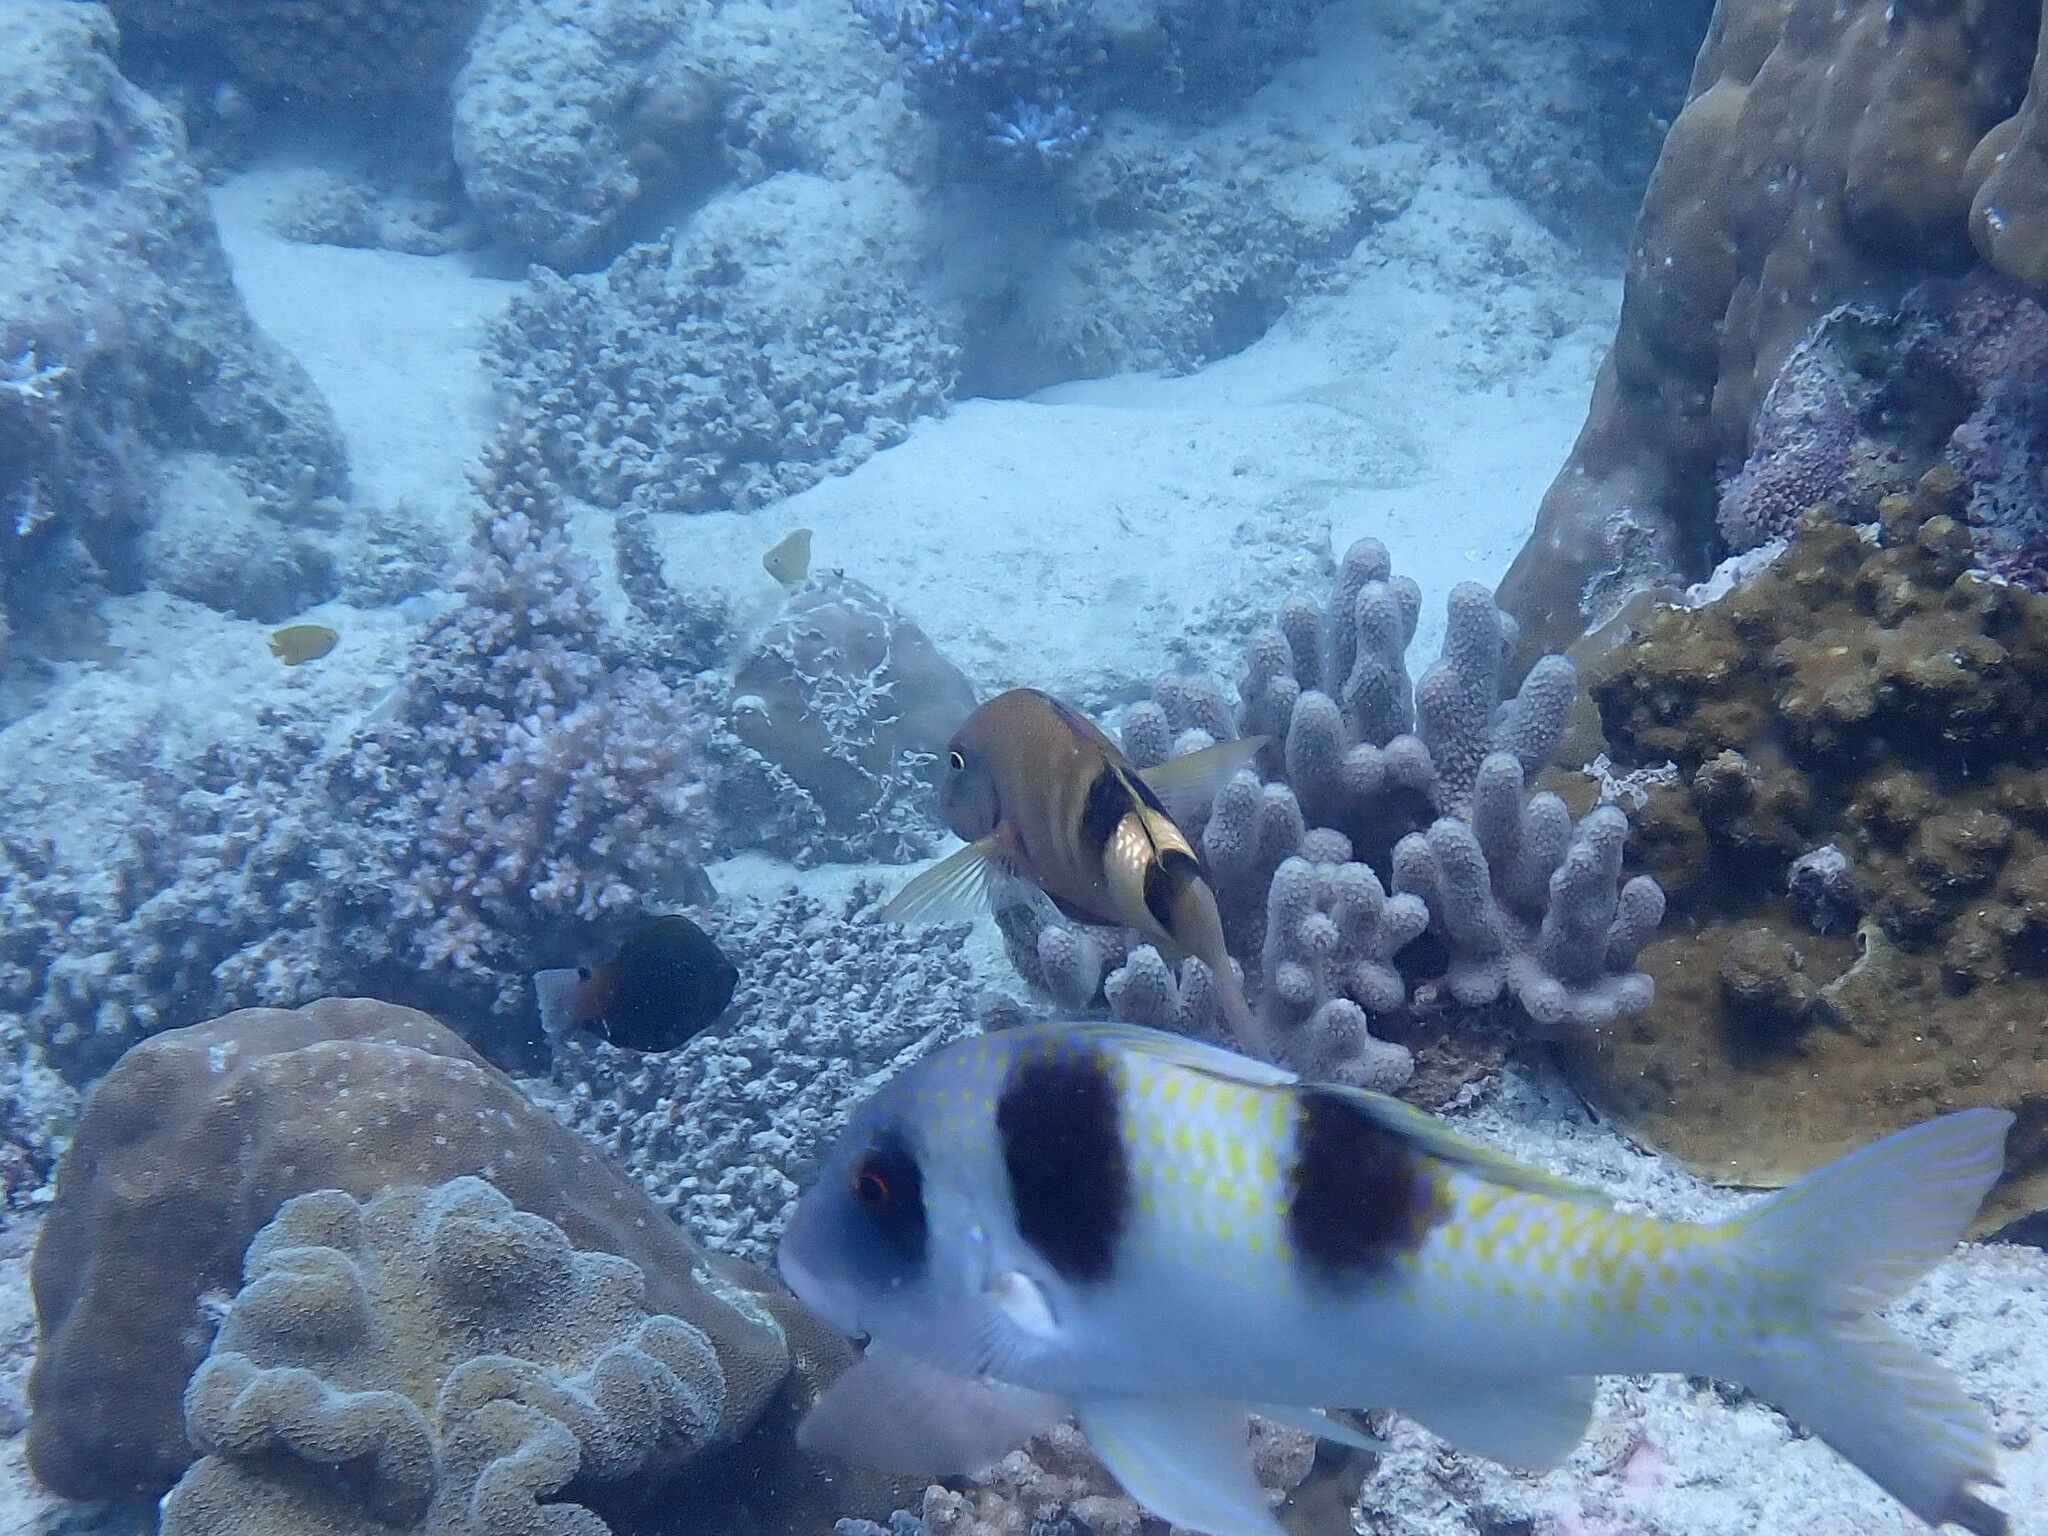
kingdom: Animalia
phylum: Chordata
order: Perciformes
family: Mullidae
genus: Parupeneus
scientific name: Parupeneus multifasciatus
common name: Manybar goatfish
